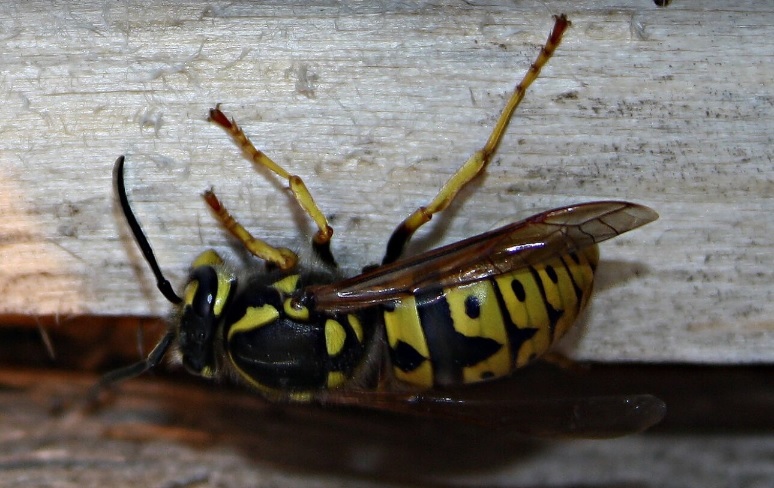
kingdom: Animalia
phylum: Arthropoda
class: Insecta
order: Hymenoptera
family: Vespidae
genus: Vespula
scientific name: Vespula germanica
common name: German wasp
